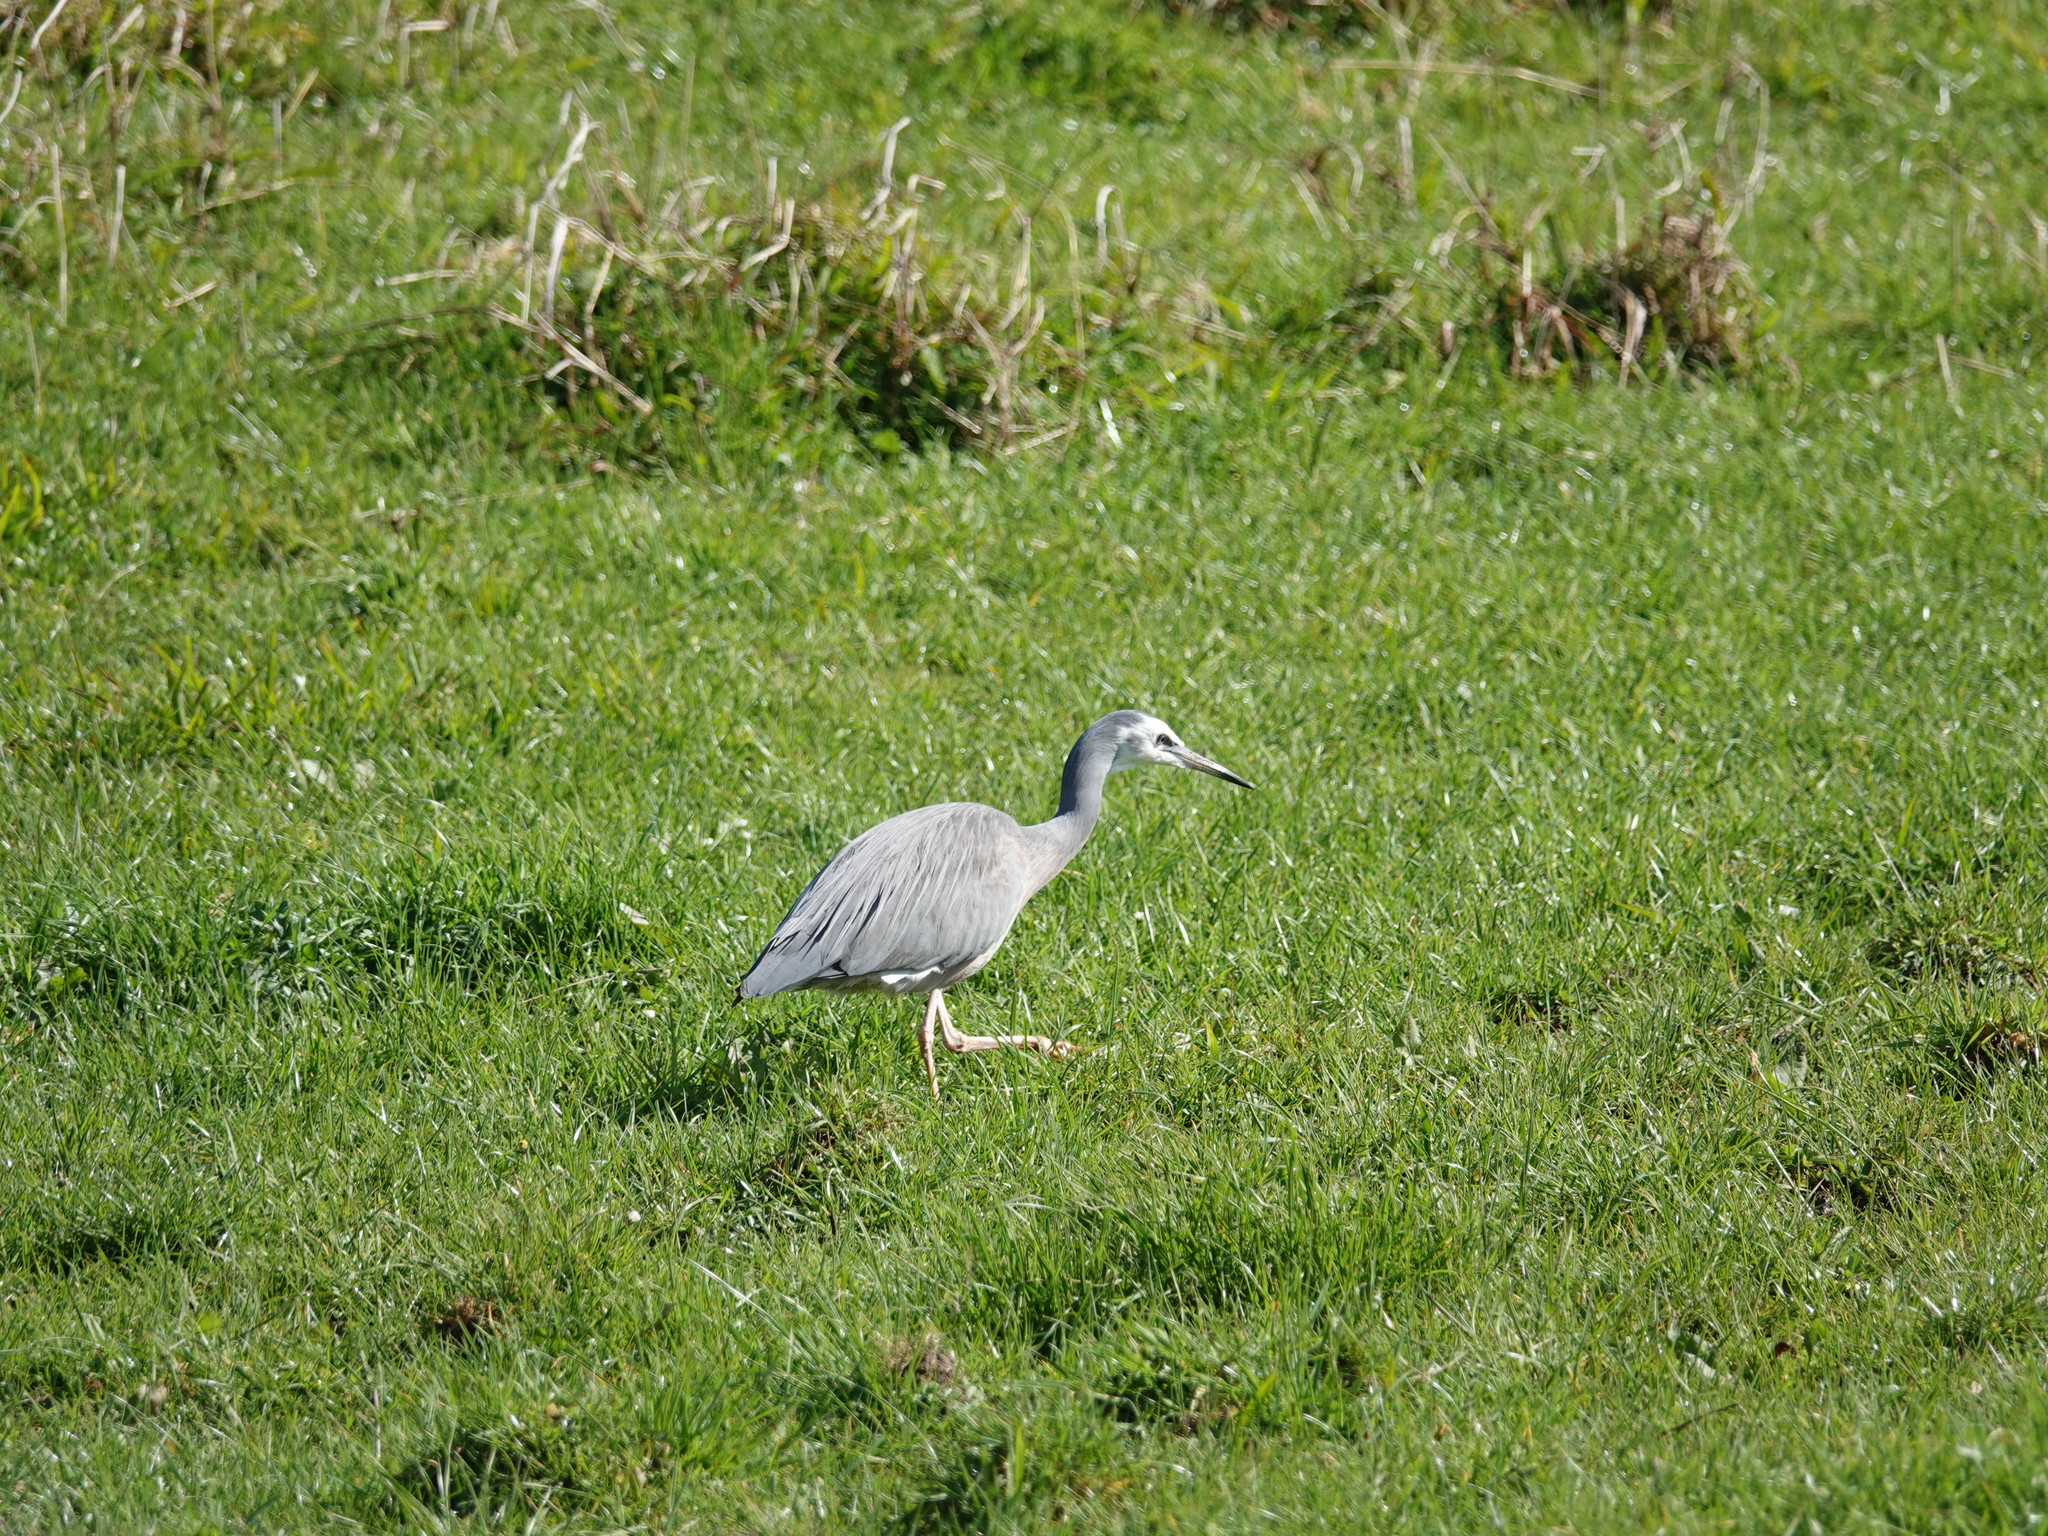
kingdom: Animalia
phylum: Chordata
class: Aves
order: Pelecaniformes
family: Ardeidae
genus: Egretta
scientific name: Egretta novaehollandiae
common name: White-faced heron
